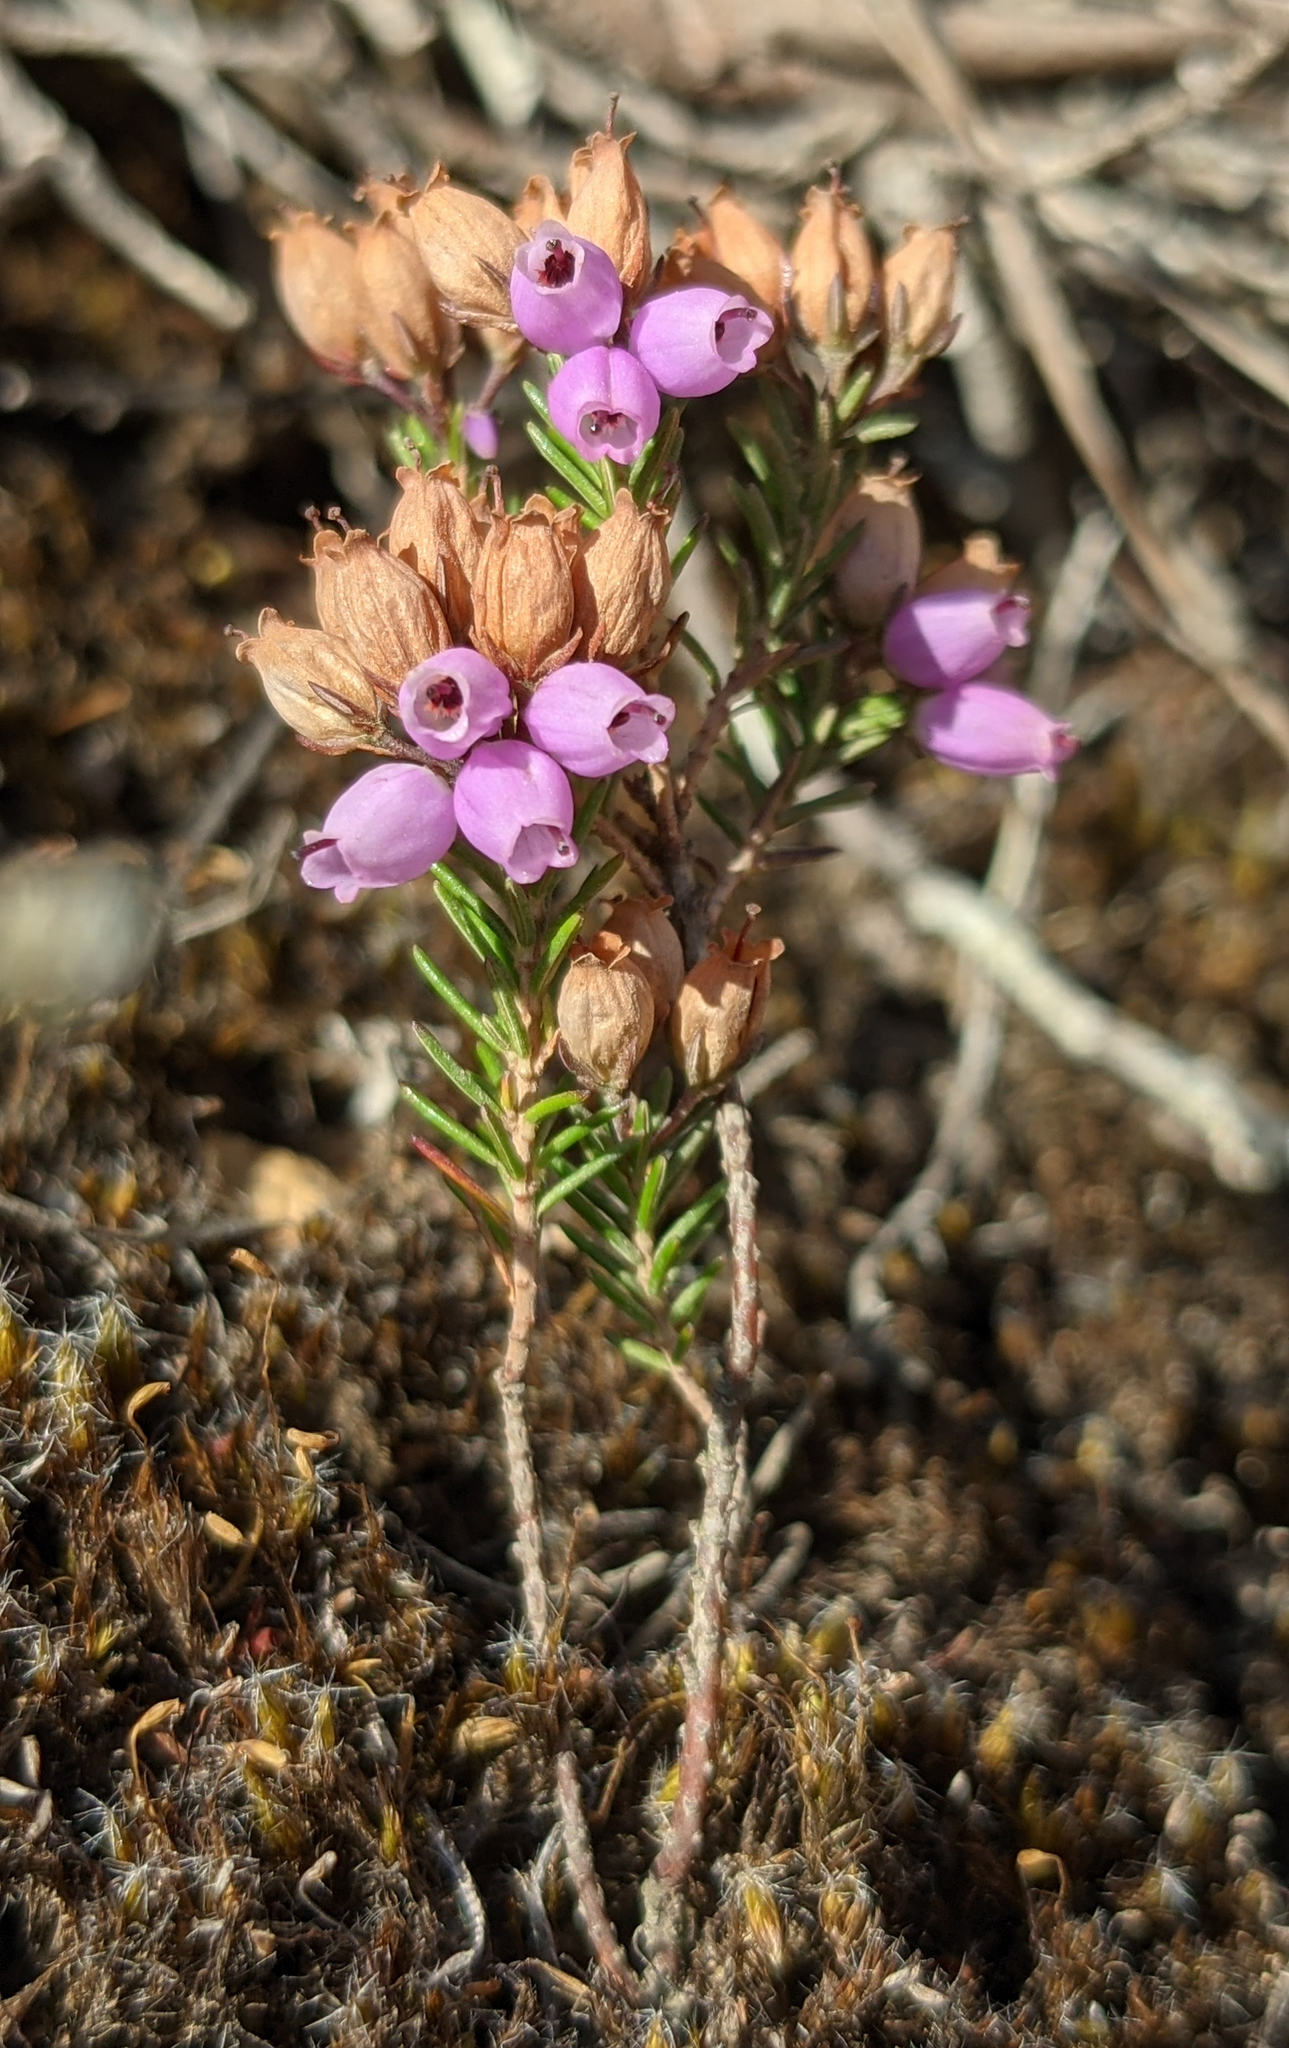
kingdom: Plantae
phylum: Tracheophyta
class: Magnoliopsida
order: Ericales
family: Ericaceae
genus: Erica
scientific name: Erica cinerea
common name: Bell heather
